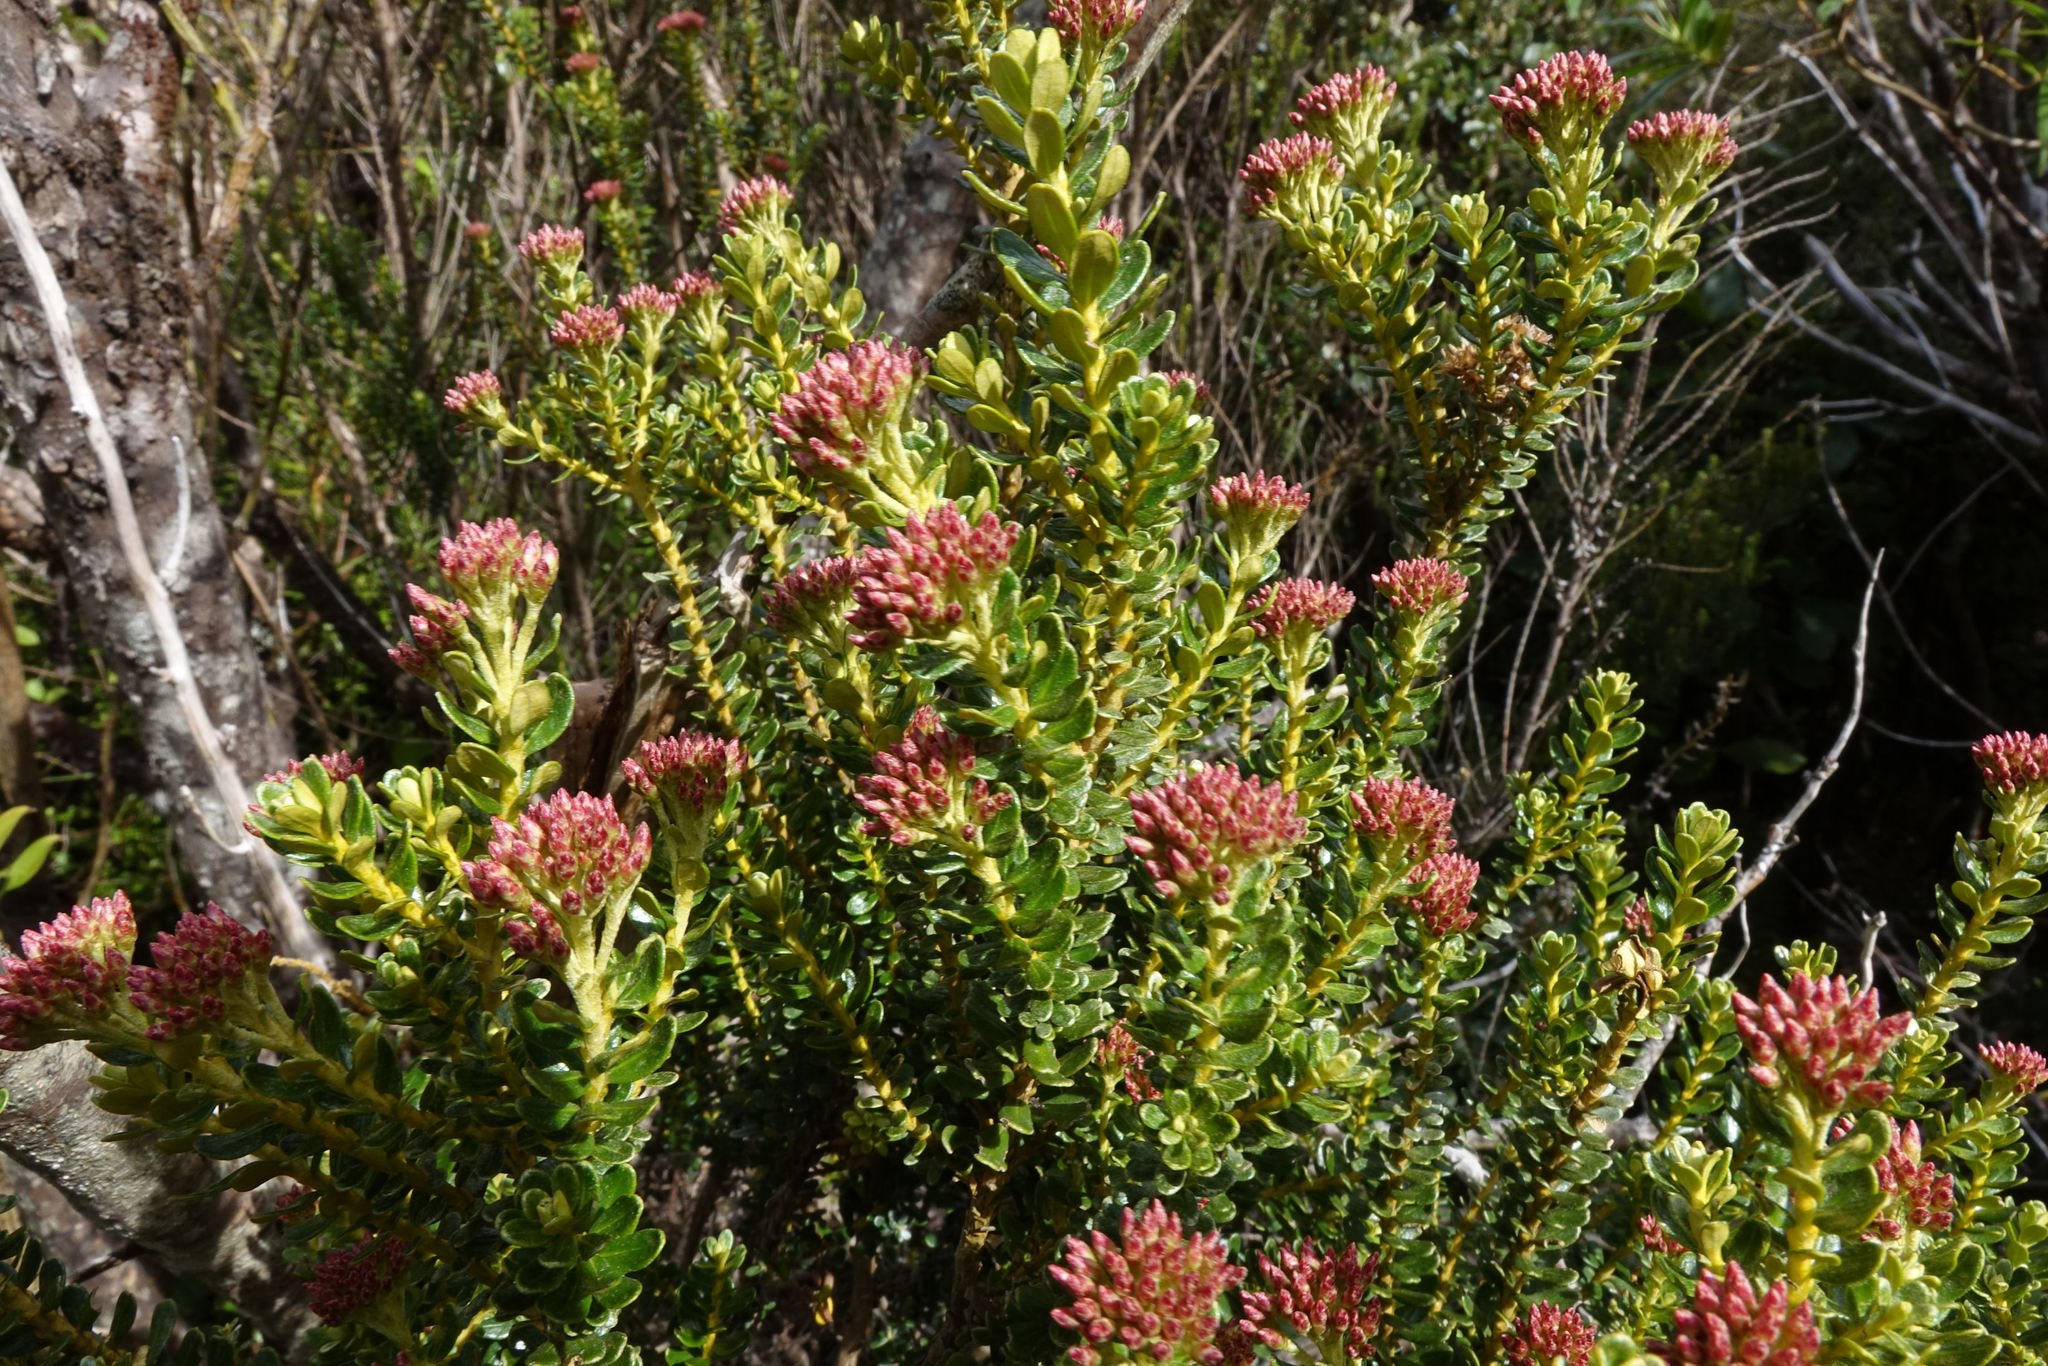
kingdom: Plantae
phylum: Tracheophyta
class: Magnoliopsida
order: Asterales
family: Asteraceae
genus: Ozothamnus
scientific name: Ozothamnus leptophyllus
